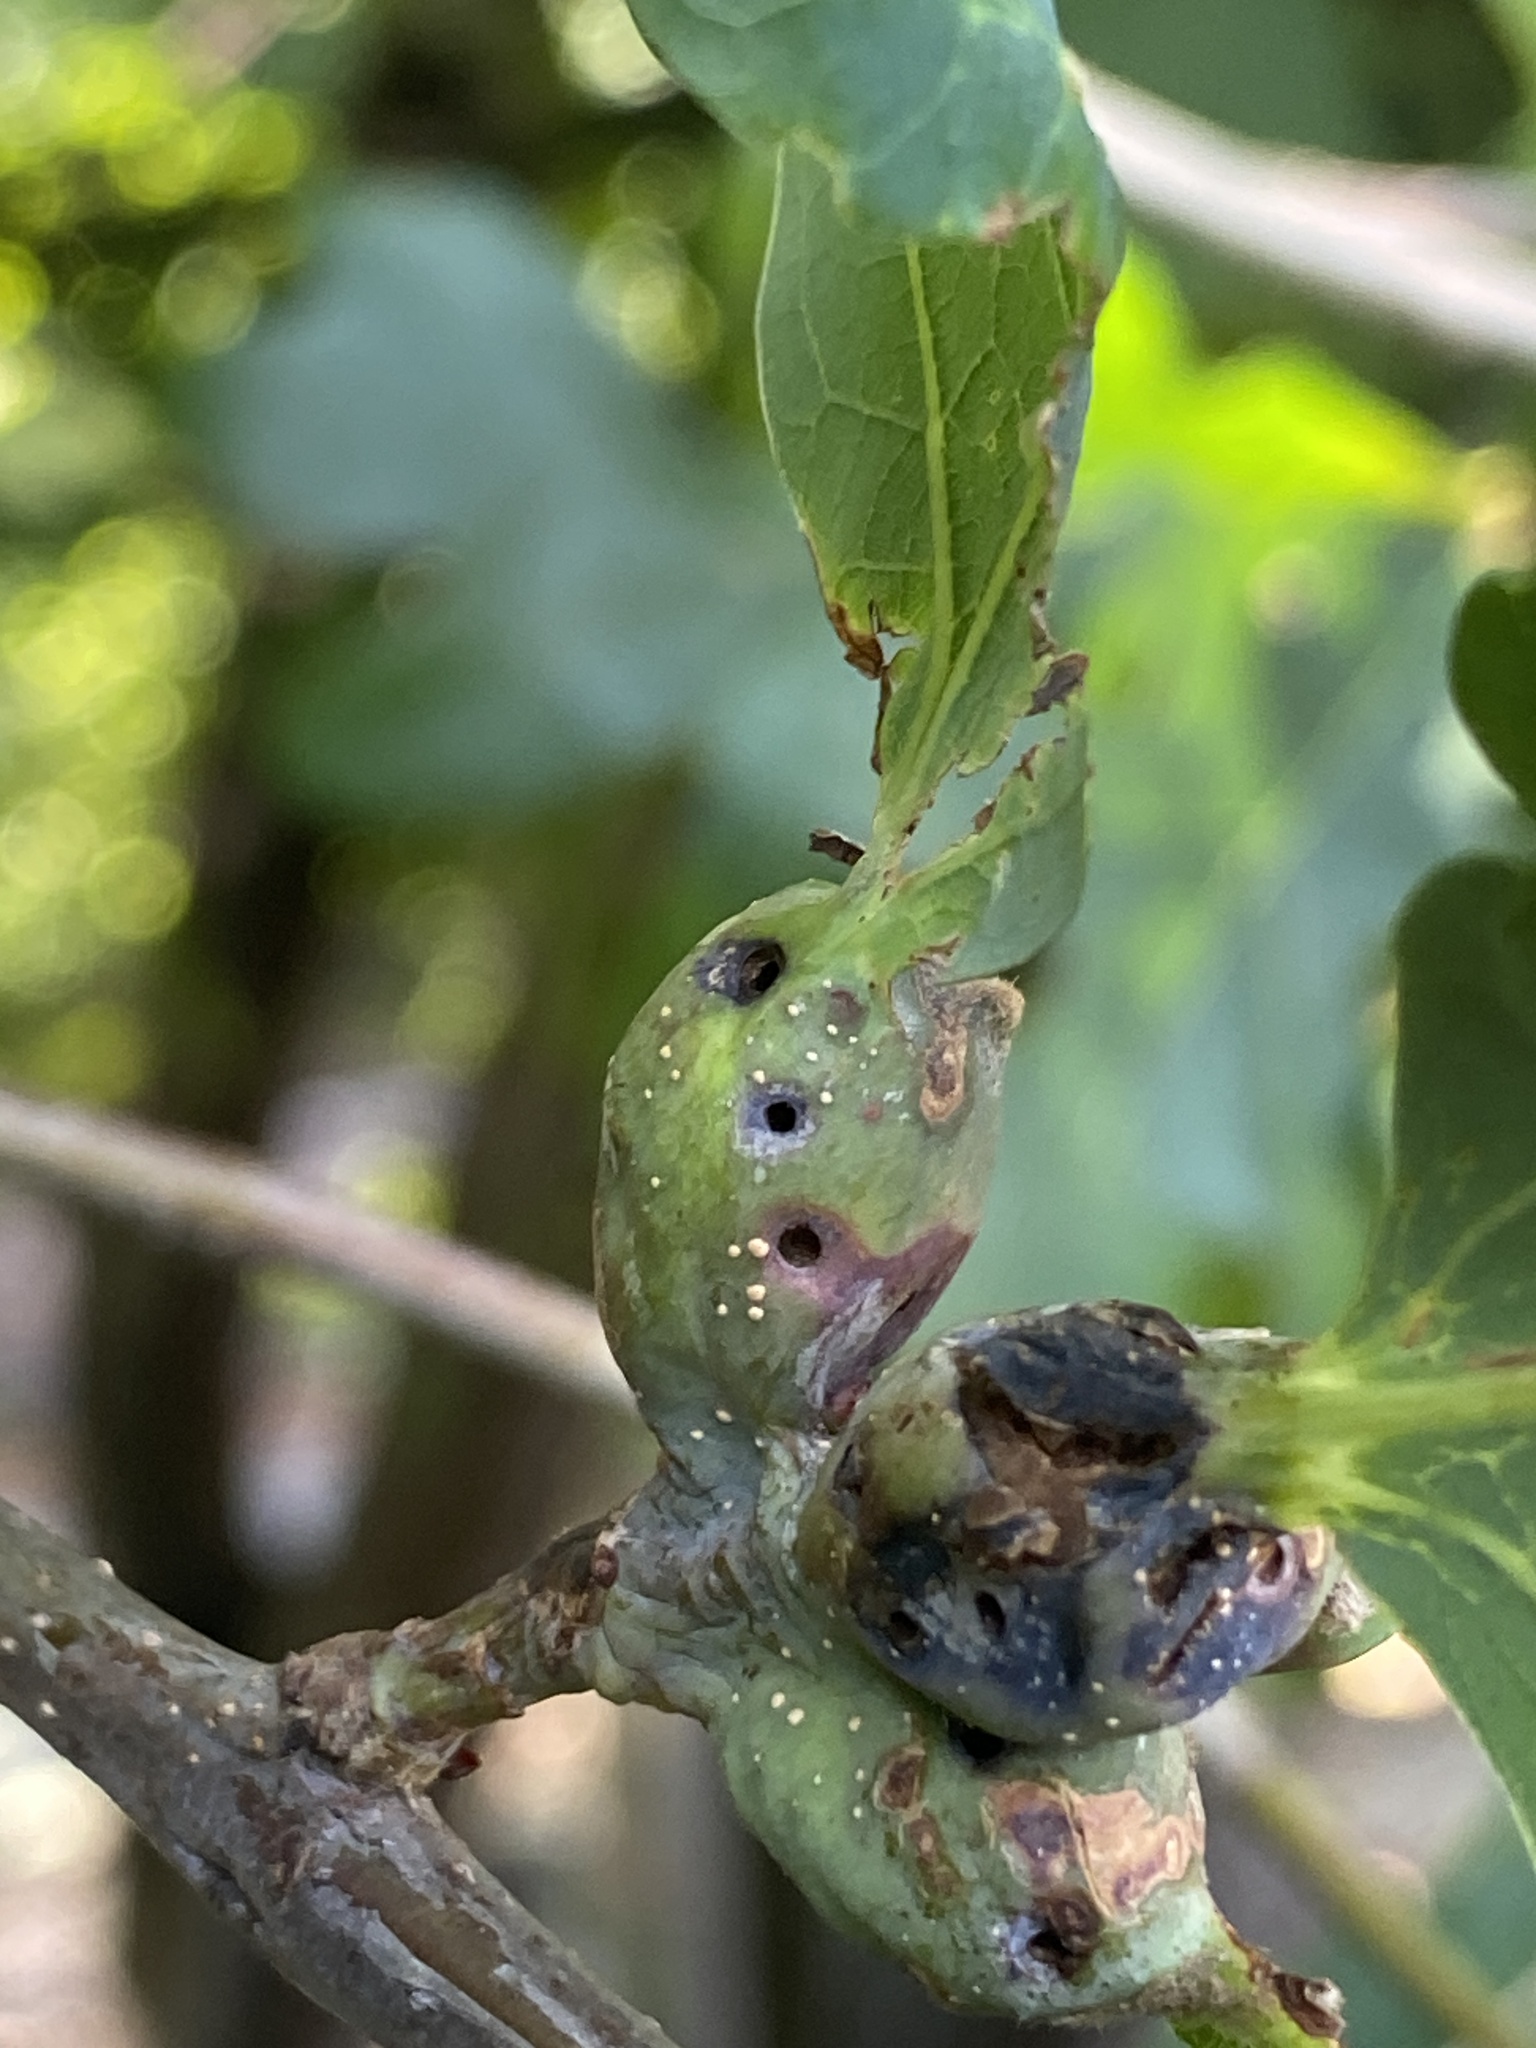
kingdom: Animalia
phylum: Arthropoda
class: Insecta
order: Hymenoptera
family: Cynipidae
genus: Andricus
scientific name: Andricus
